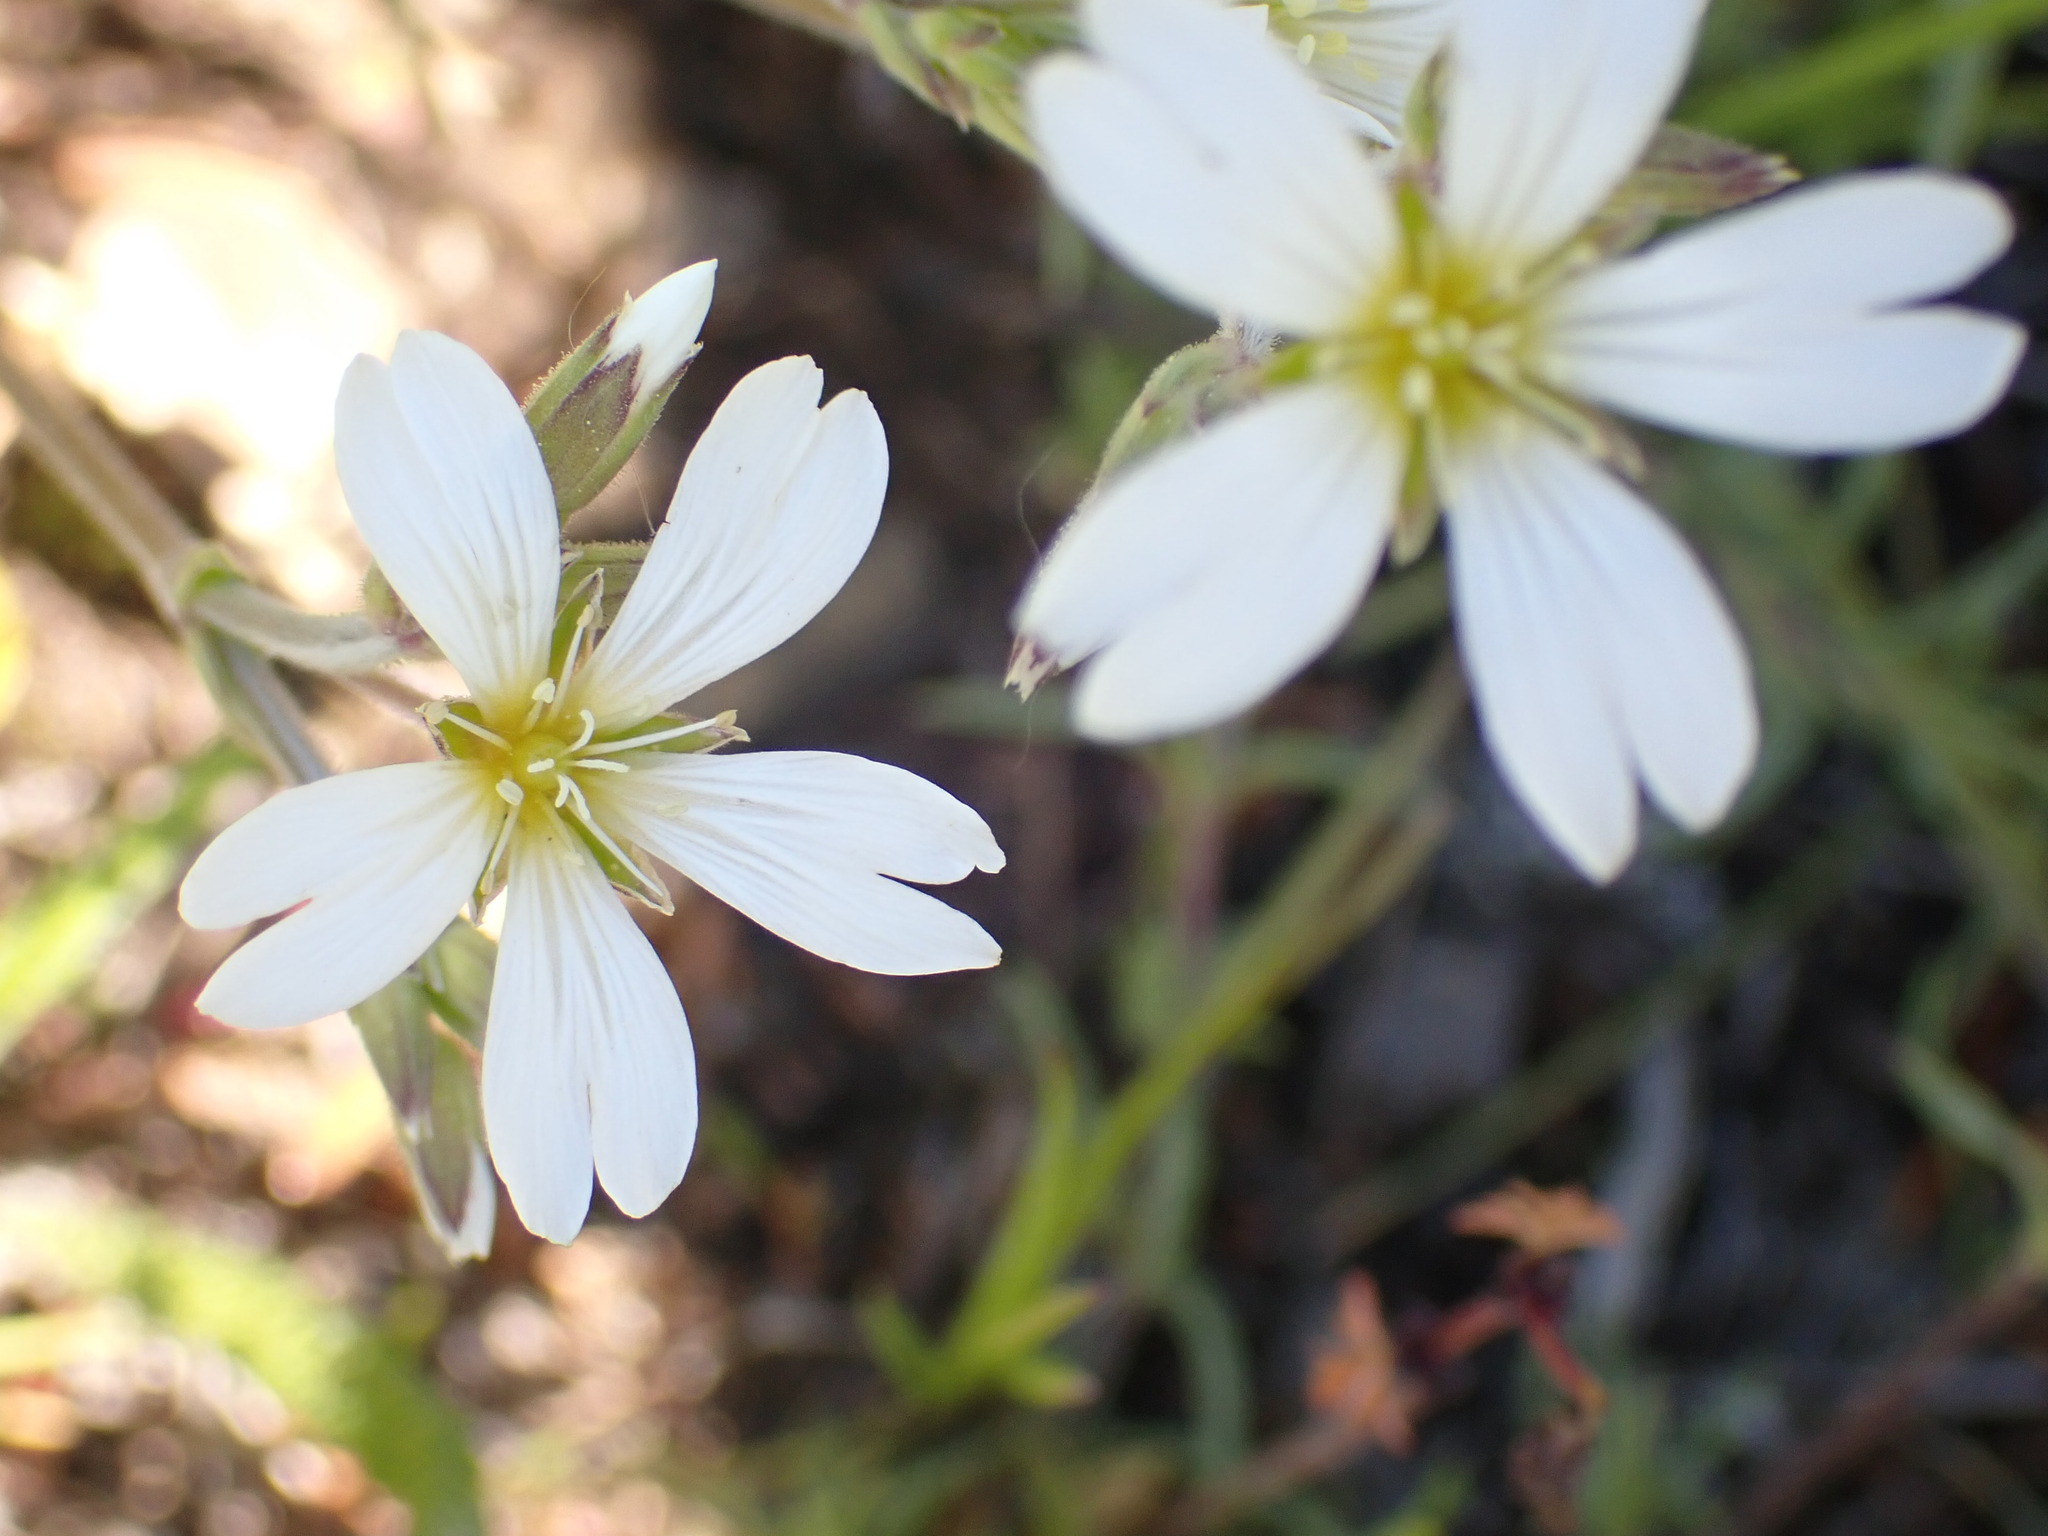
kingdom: Plantae
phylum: Tracheophyta
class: Magnoliopsida
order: Caryophyllales
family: Caryophyllaceae
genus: Cerastium
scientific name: Cerastium arvense
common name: Field mouse-ear
